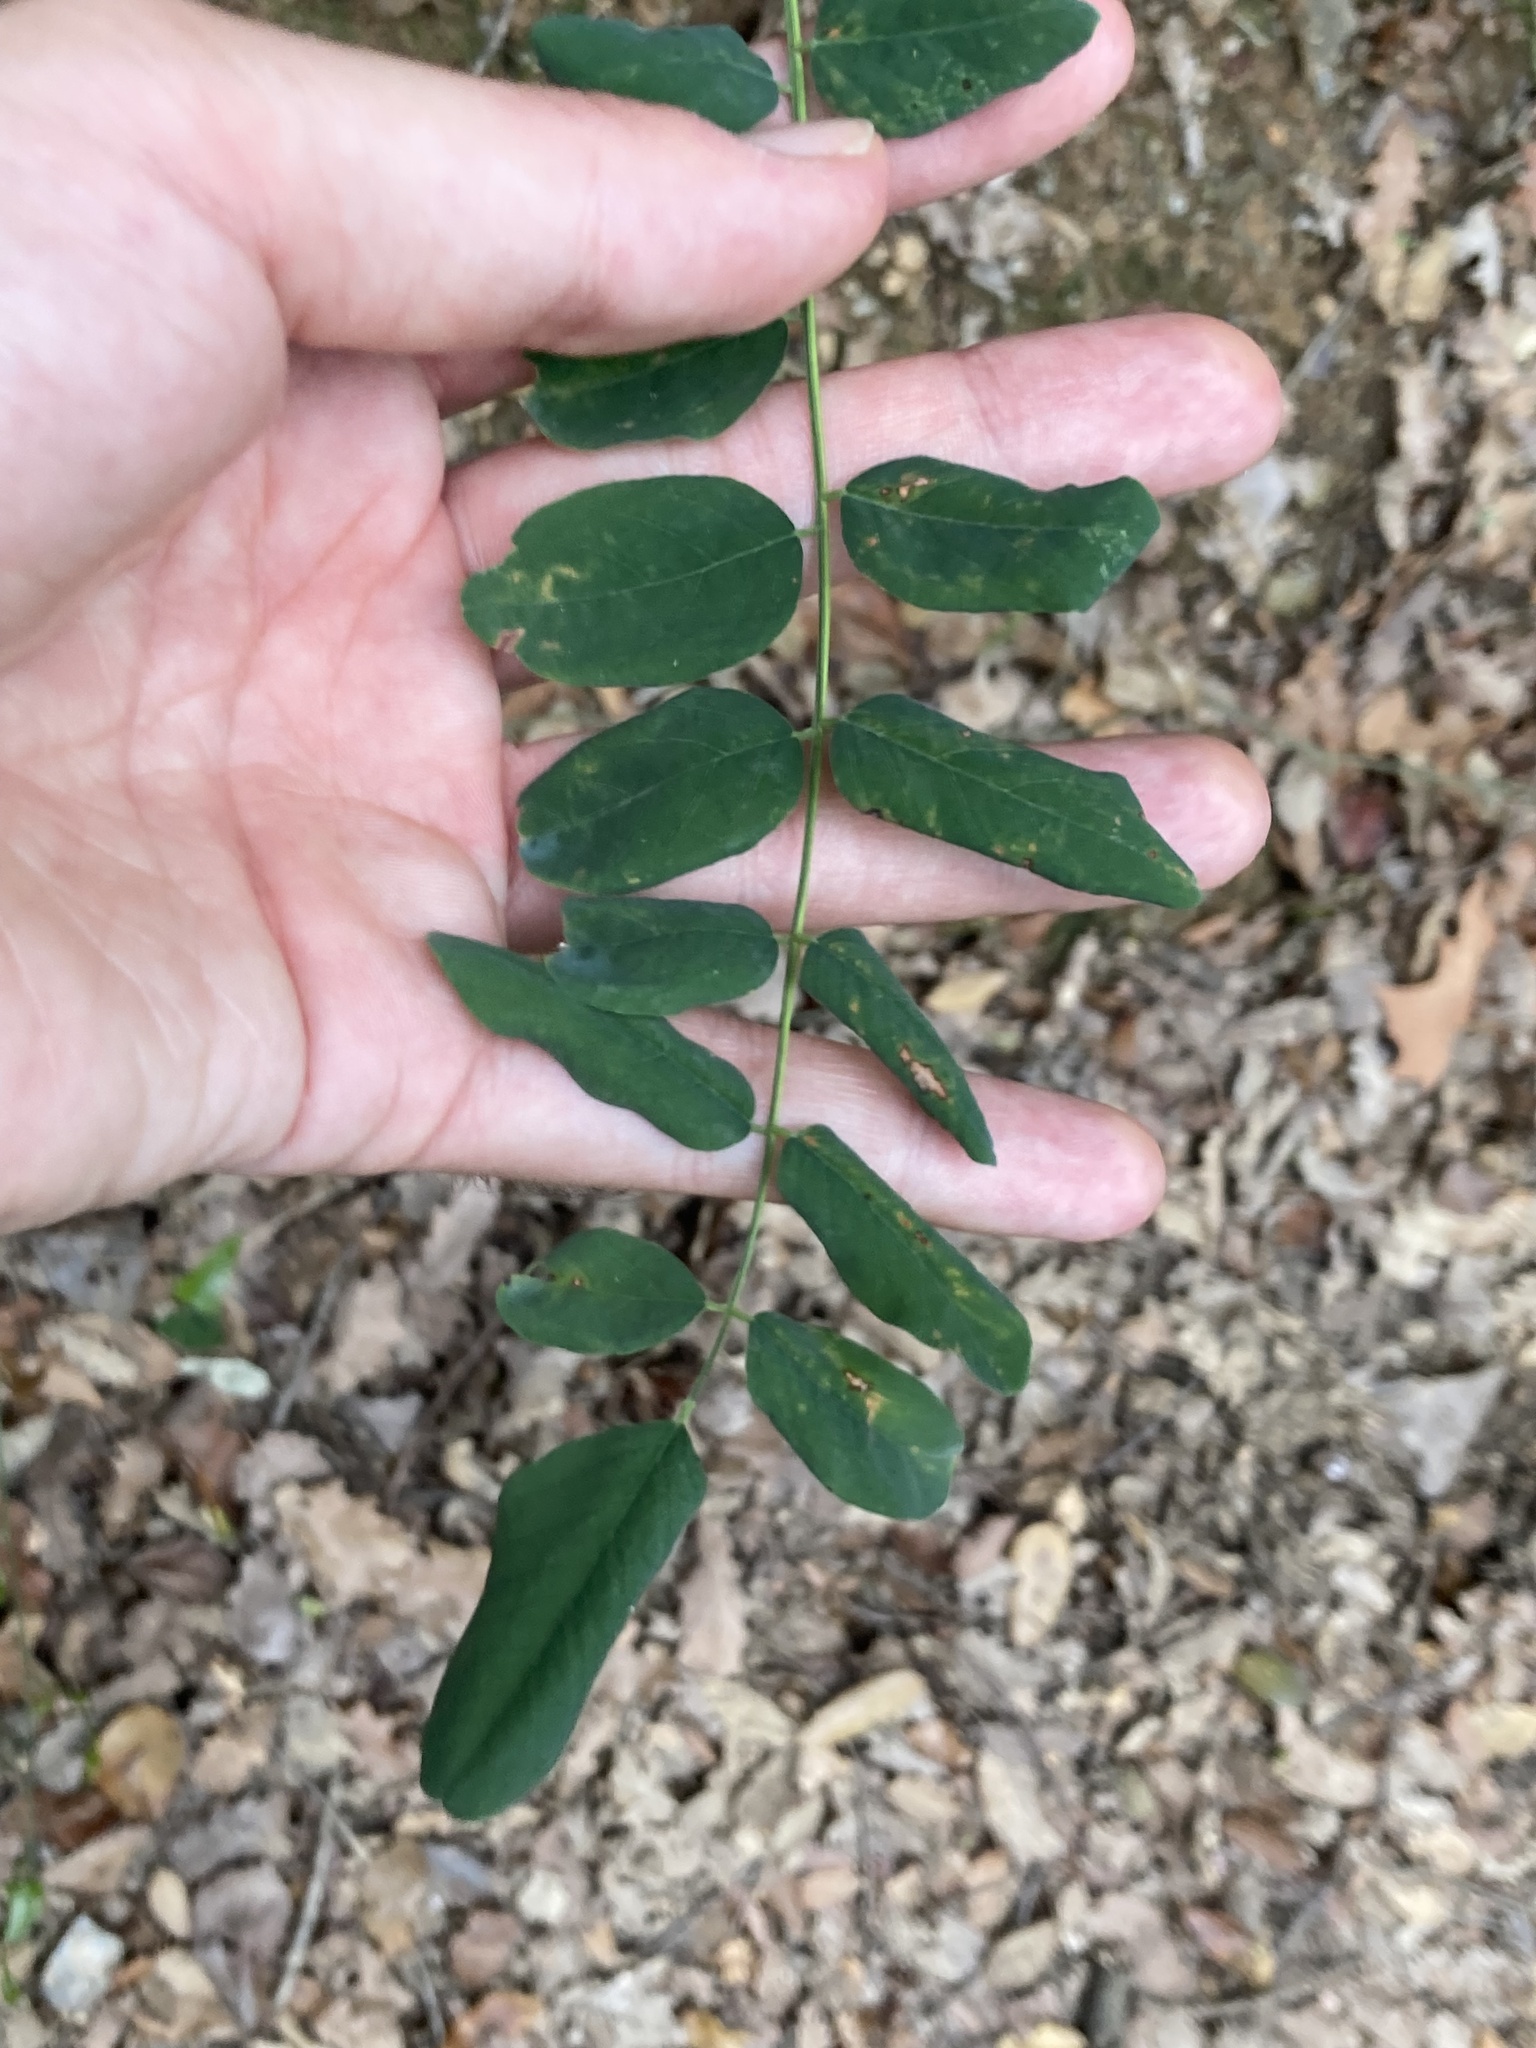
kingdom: Plantae
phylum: Tracheophyta
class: Magnoliopsida
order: Fabales
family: Fabaceae
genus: Robinia
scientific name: Robinia pseudoacacia
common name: Black locust
